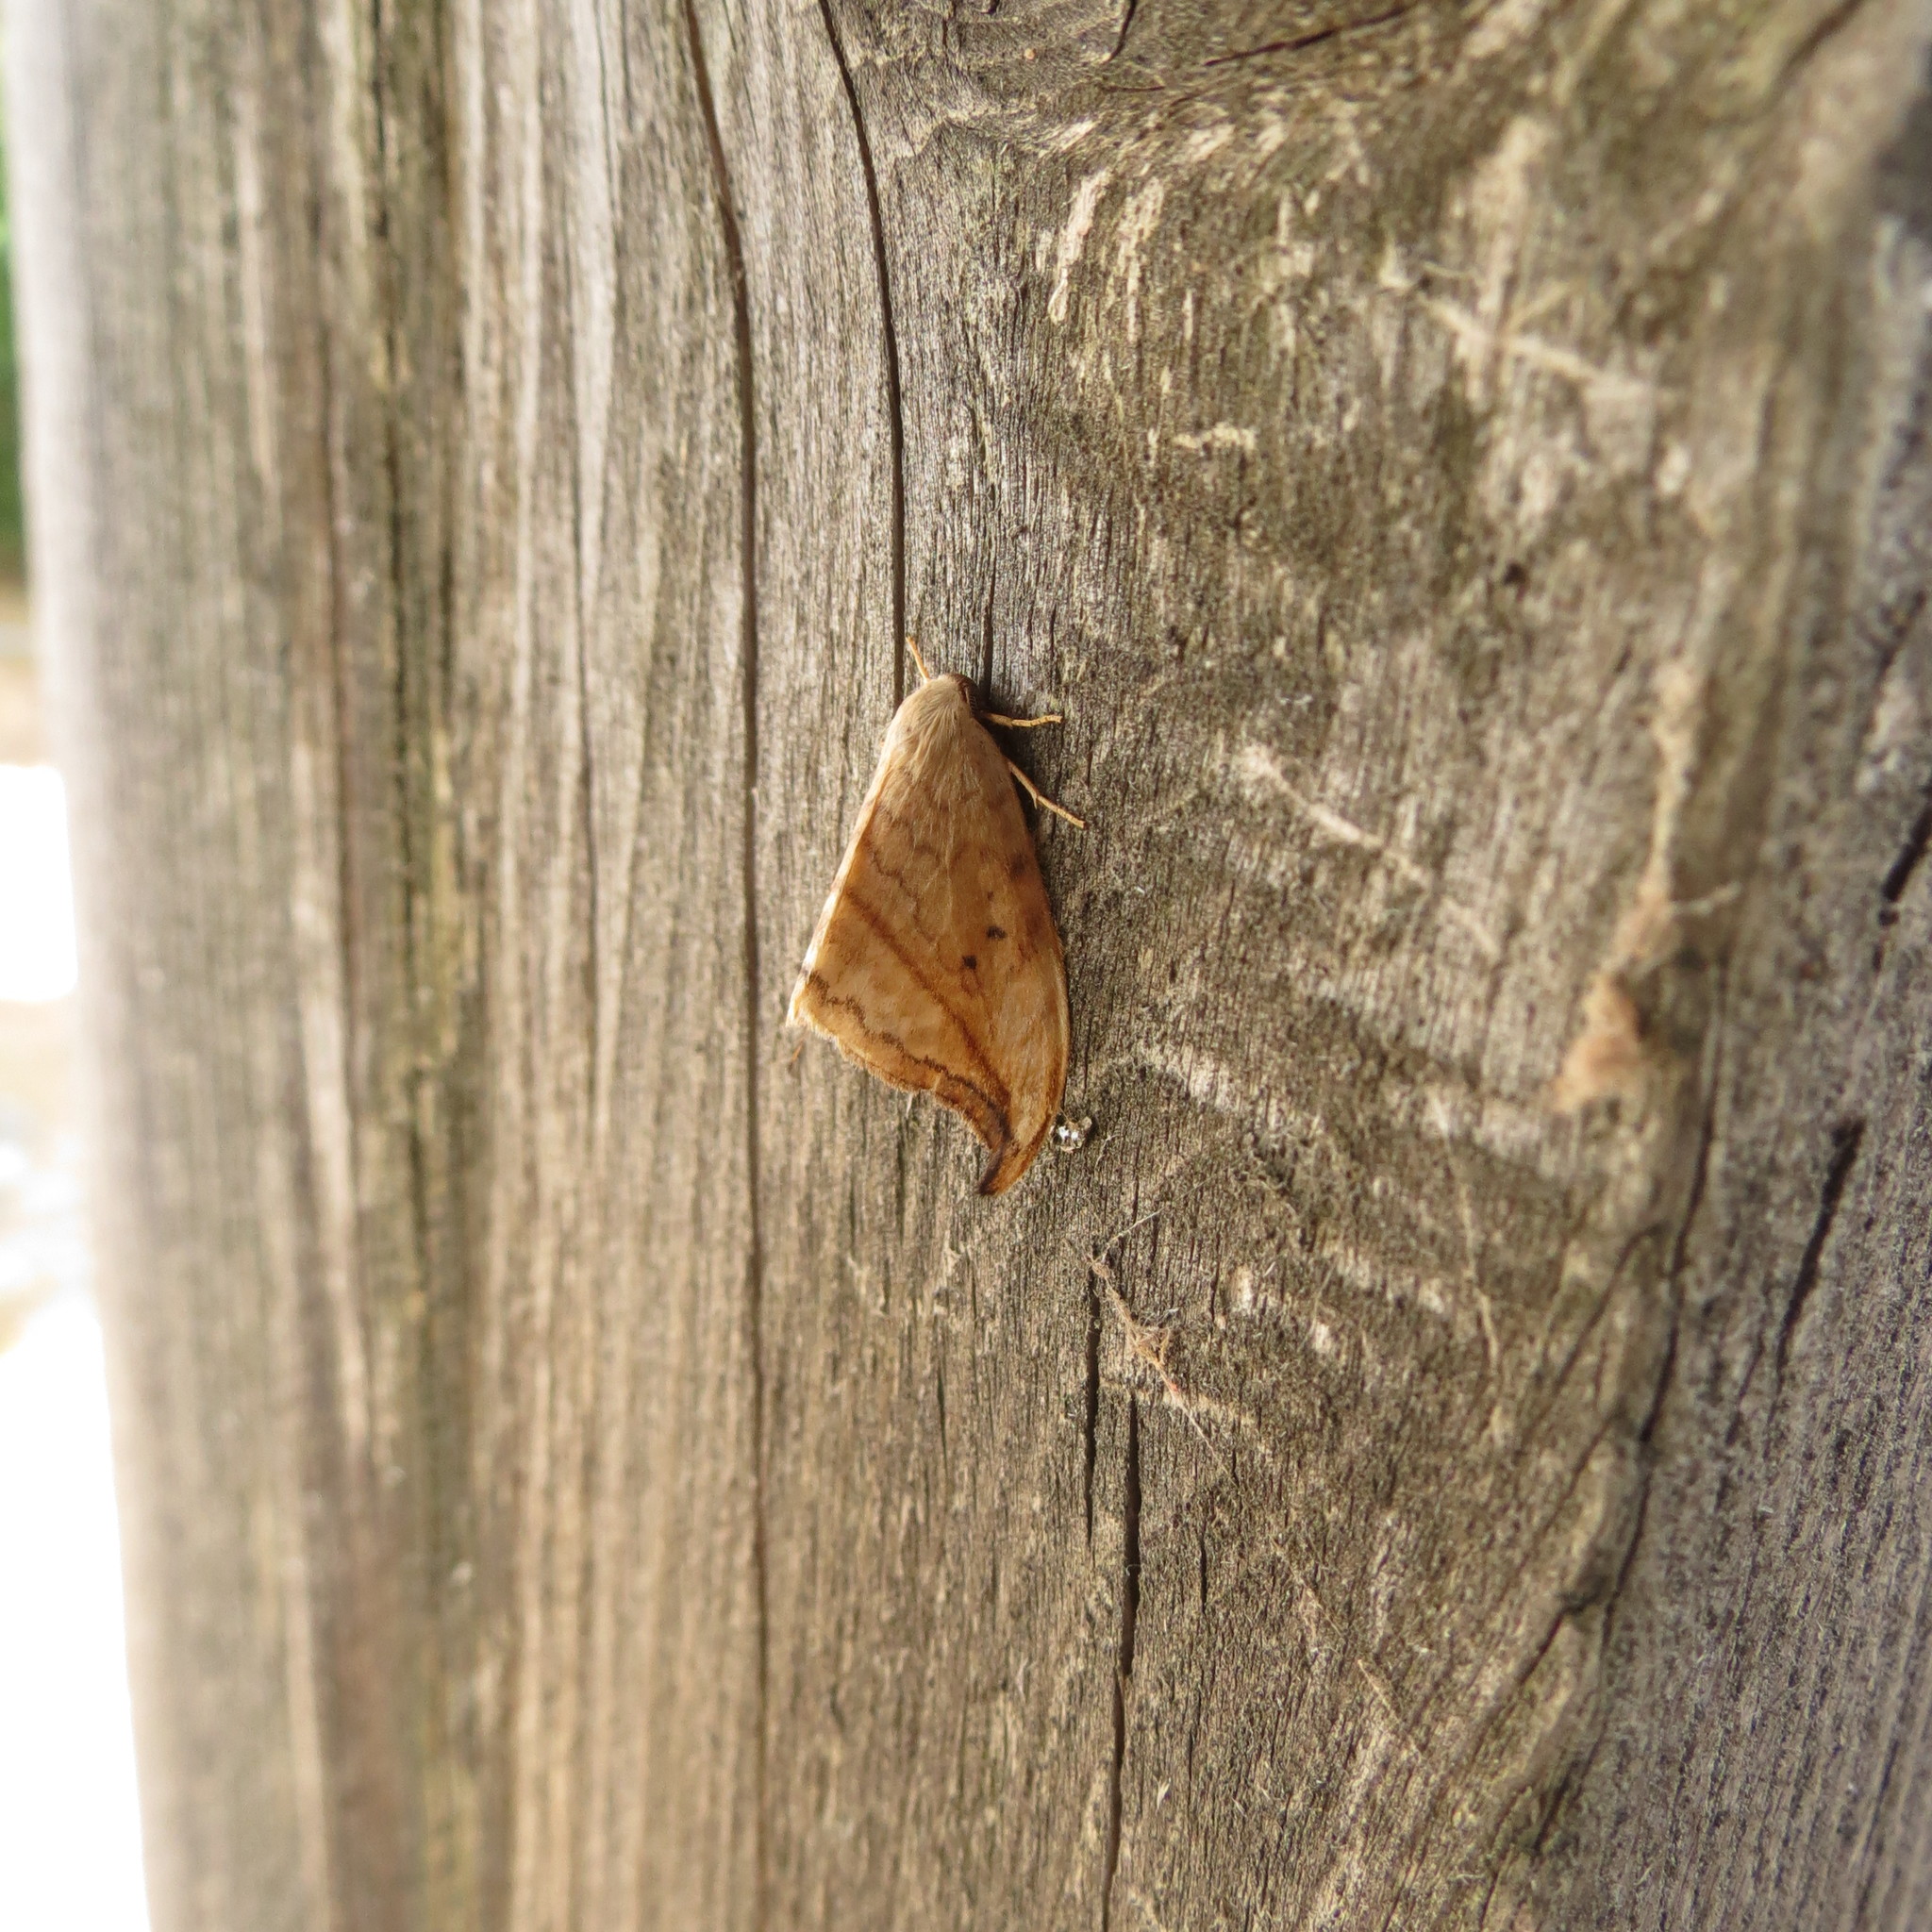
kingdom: Animalia
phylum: Arthropoda
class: Insecta
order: Lepidoptera
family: Drepanidae
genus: Drepana
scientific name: Drepana arcuata
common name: Arched hooktip moth
